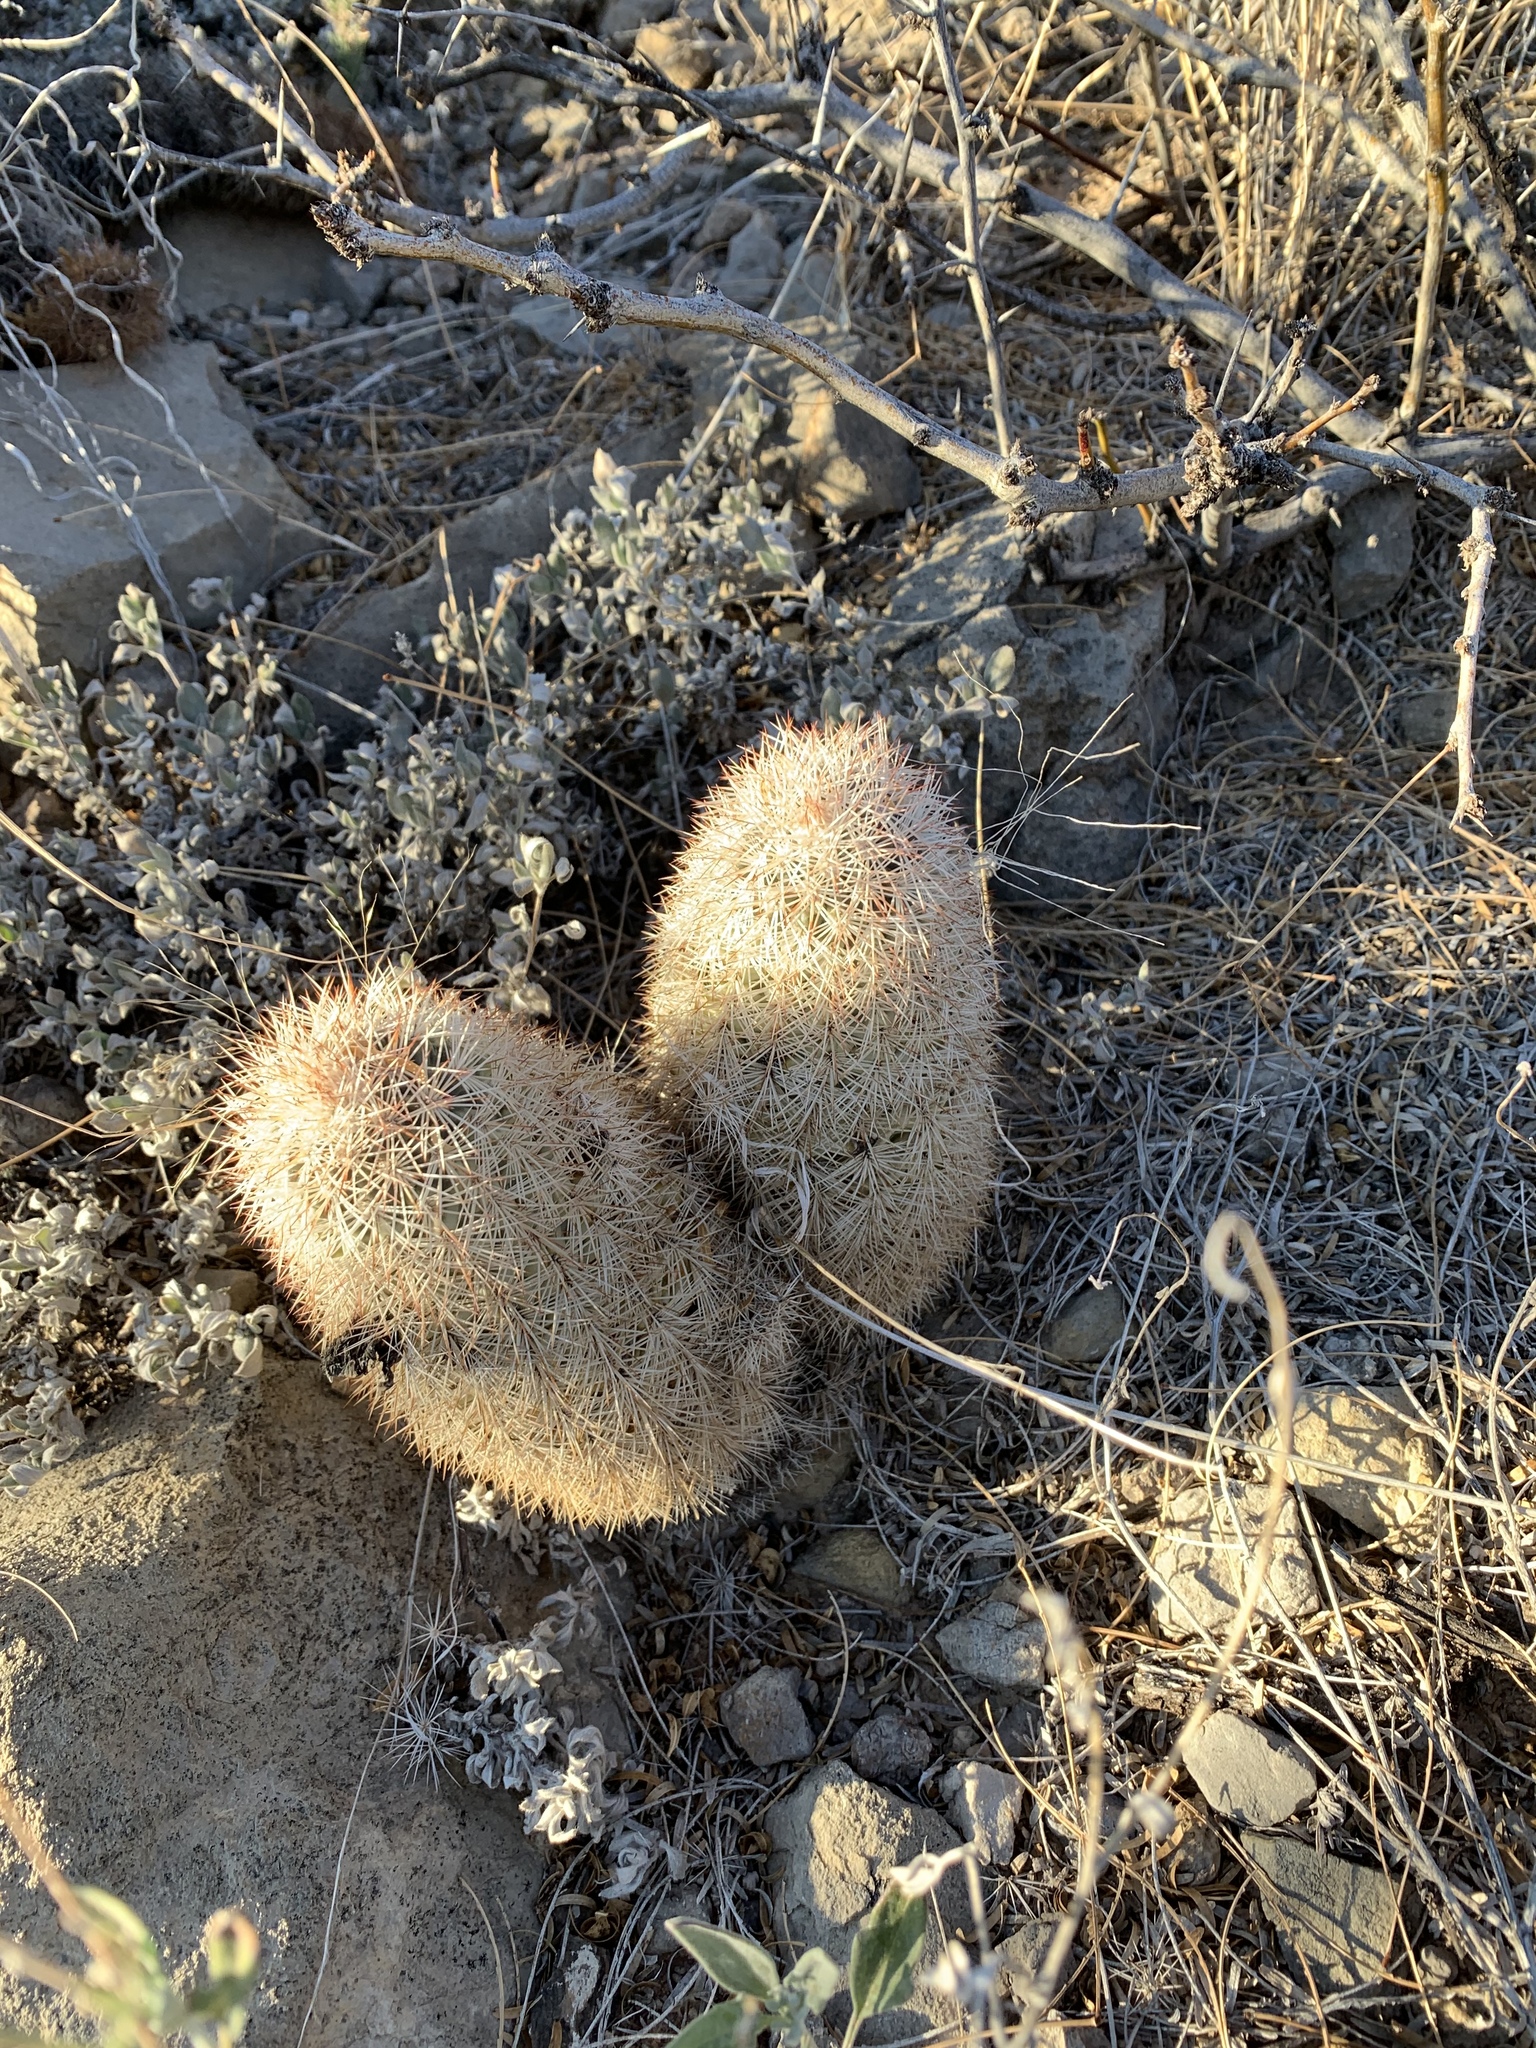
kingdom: Plantae
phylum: Tracheophyta
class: Magnoliopsida
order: Caryophyllales
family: Cactaceae
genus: Echinocereus
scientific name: Echinocereus dasyacanthus
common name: Spiny hedgehog cactus
